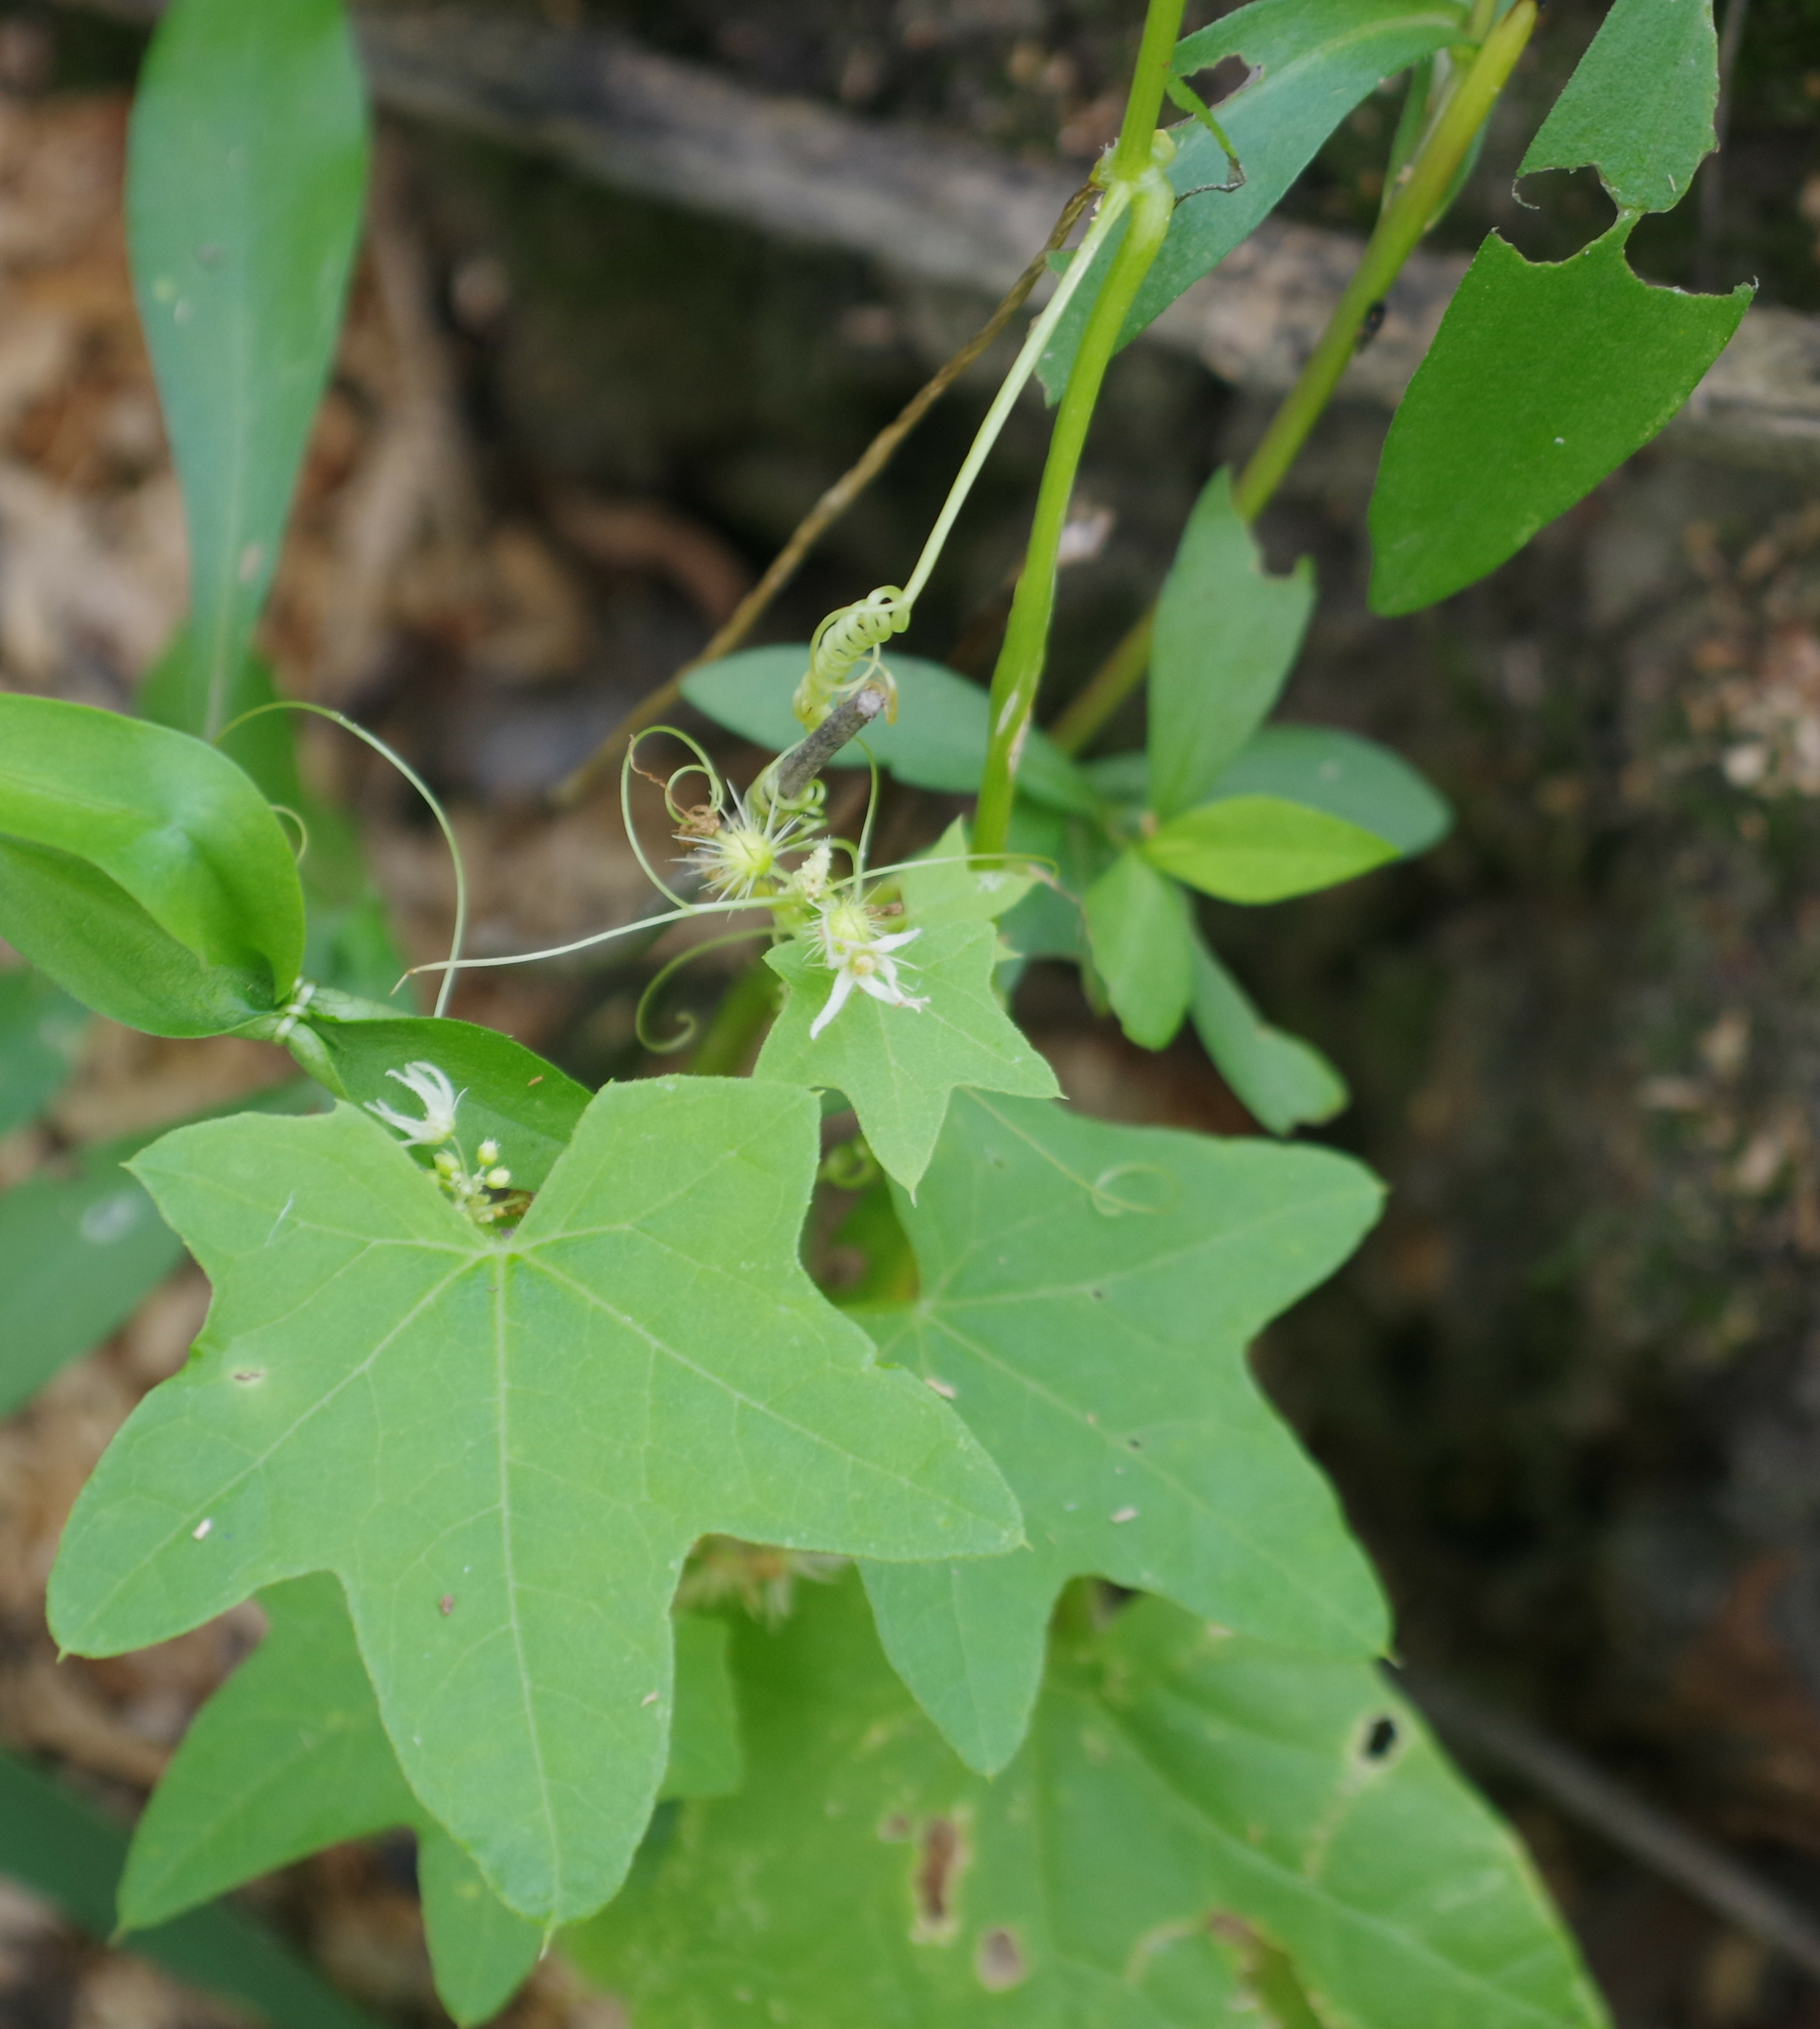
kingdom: Plantae
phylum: Tracheophyta
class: Magnoliopsida
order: Cucurbitales
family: Cucurbitaceae
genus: Echinocystis
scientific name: Echinocystis lobata
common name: Wild cucumber
